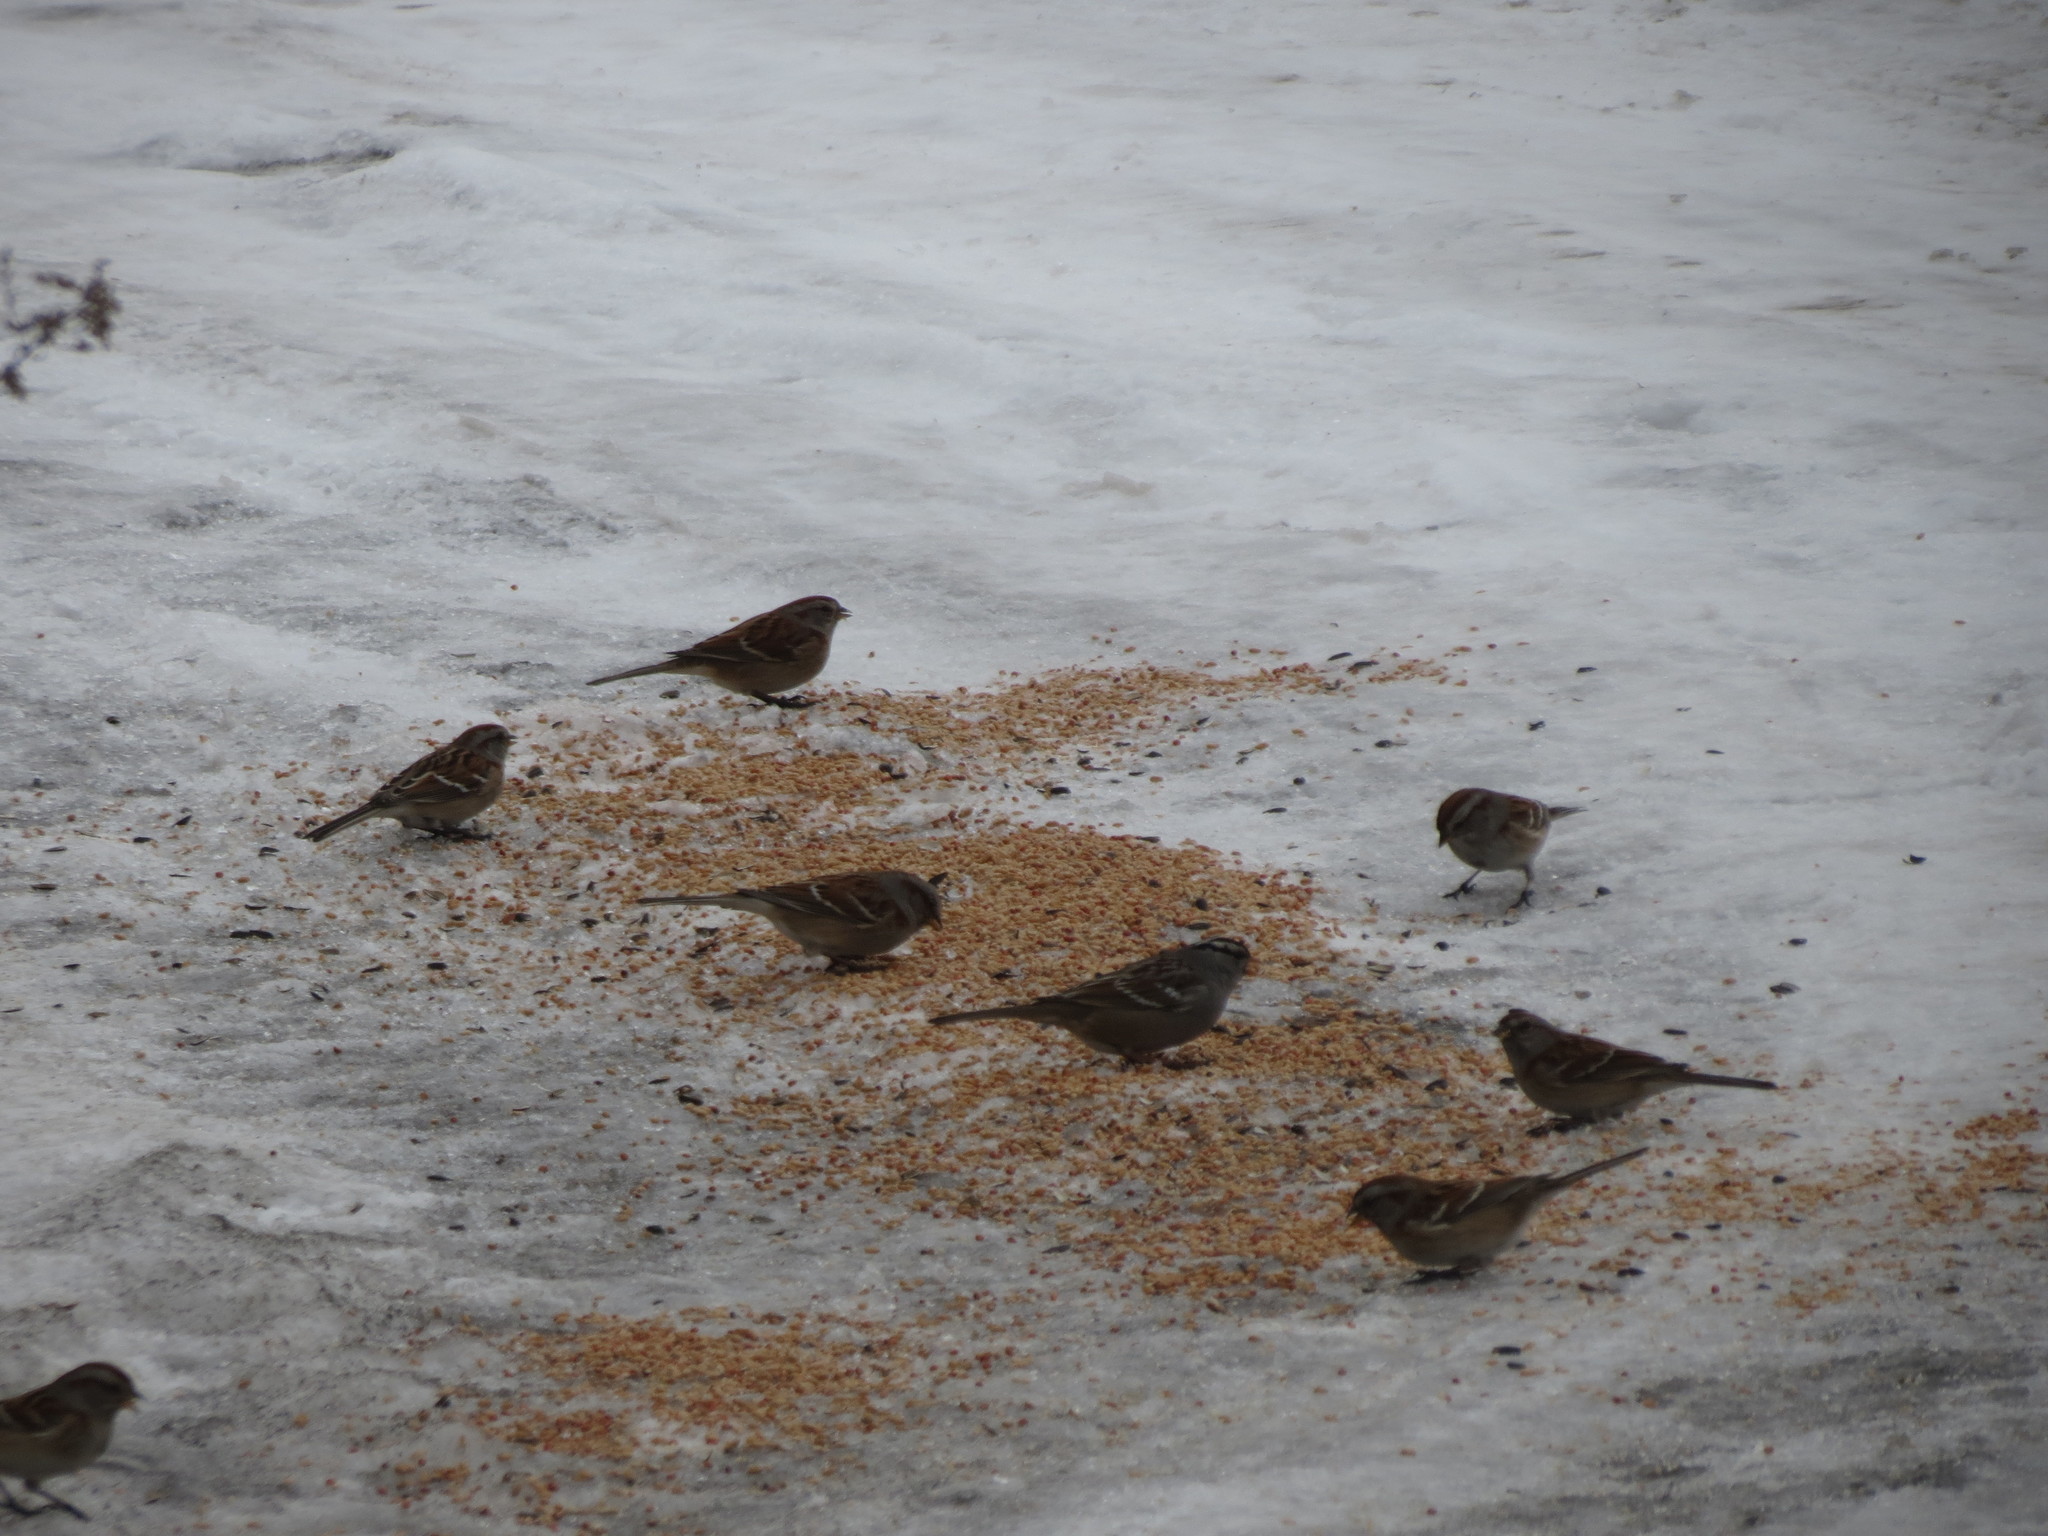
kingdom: Animalia
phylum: Chordata
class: Aves
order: Passeriformes
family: Passerellidae
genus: Spizelloides
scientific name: Spizelloides arborea
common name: American tree sparrow
